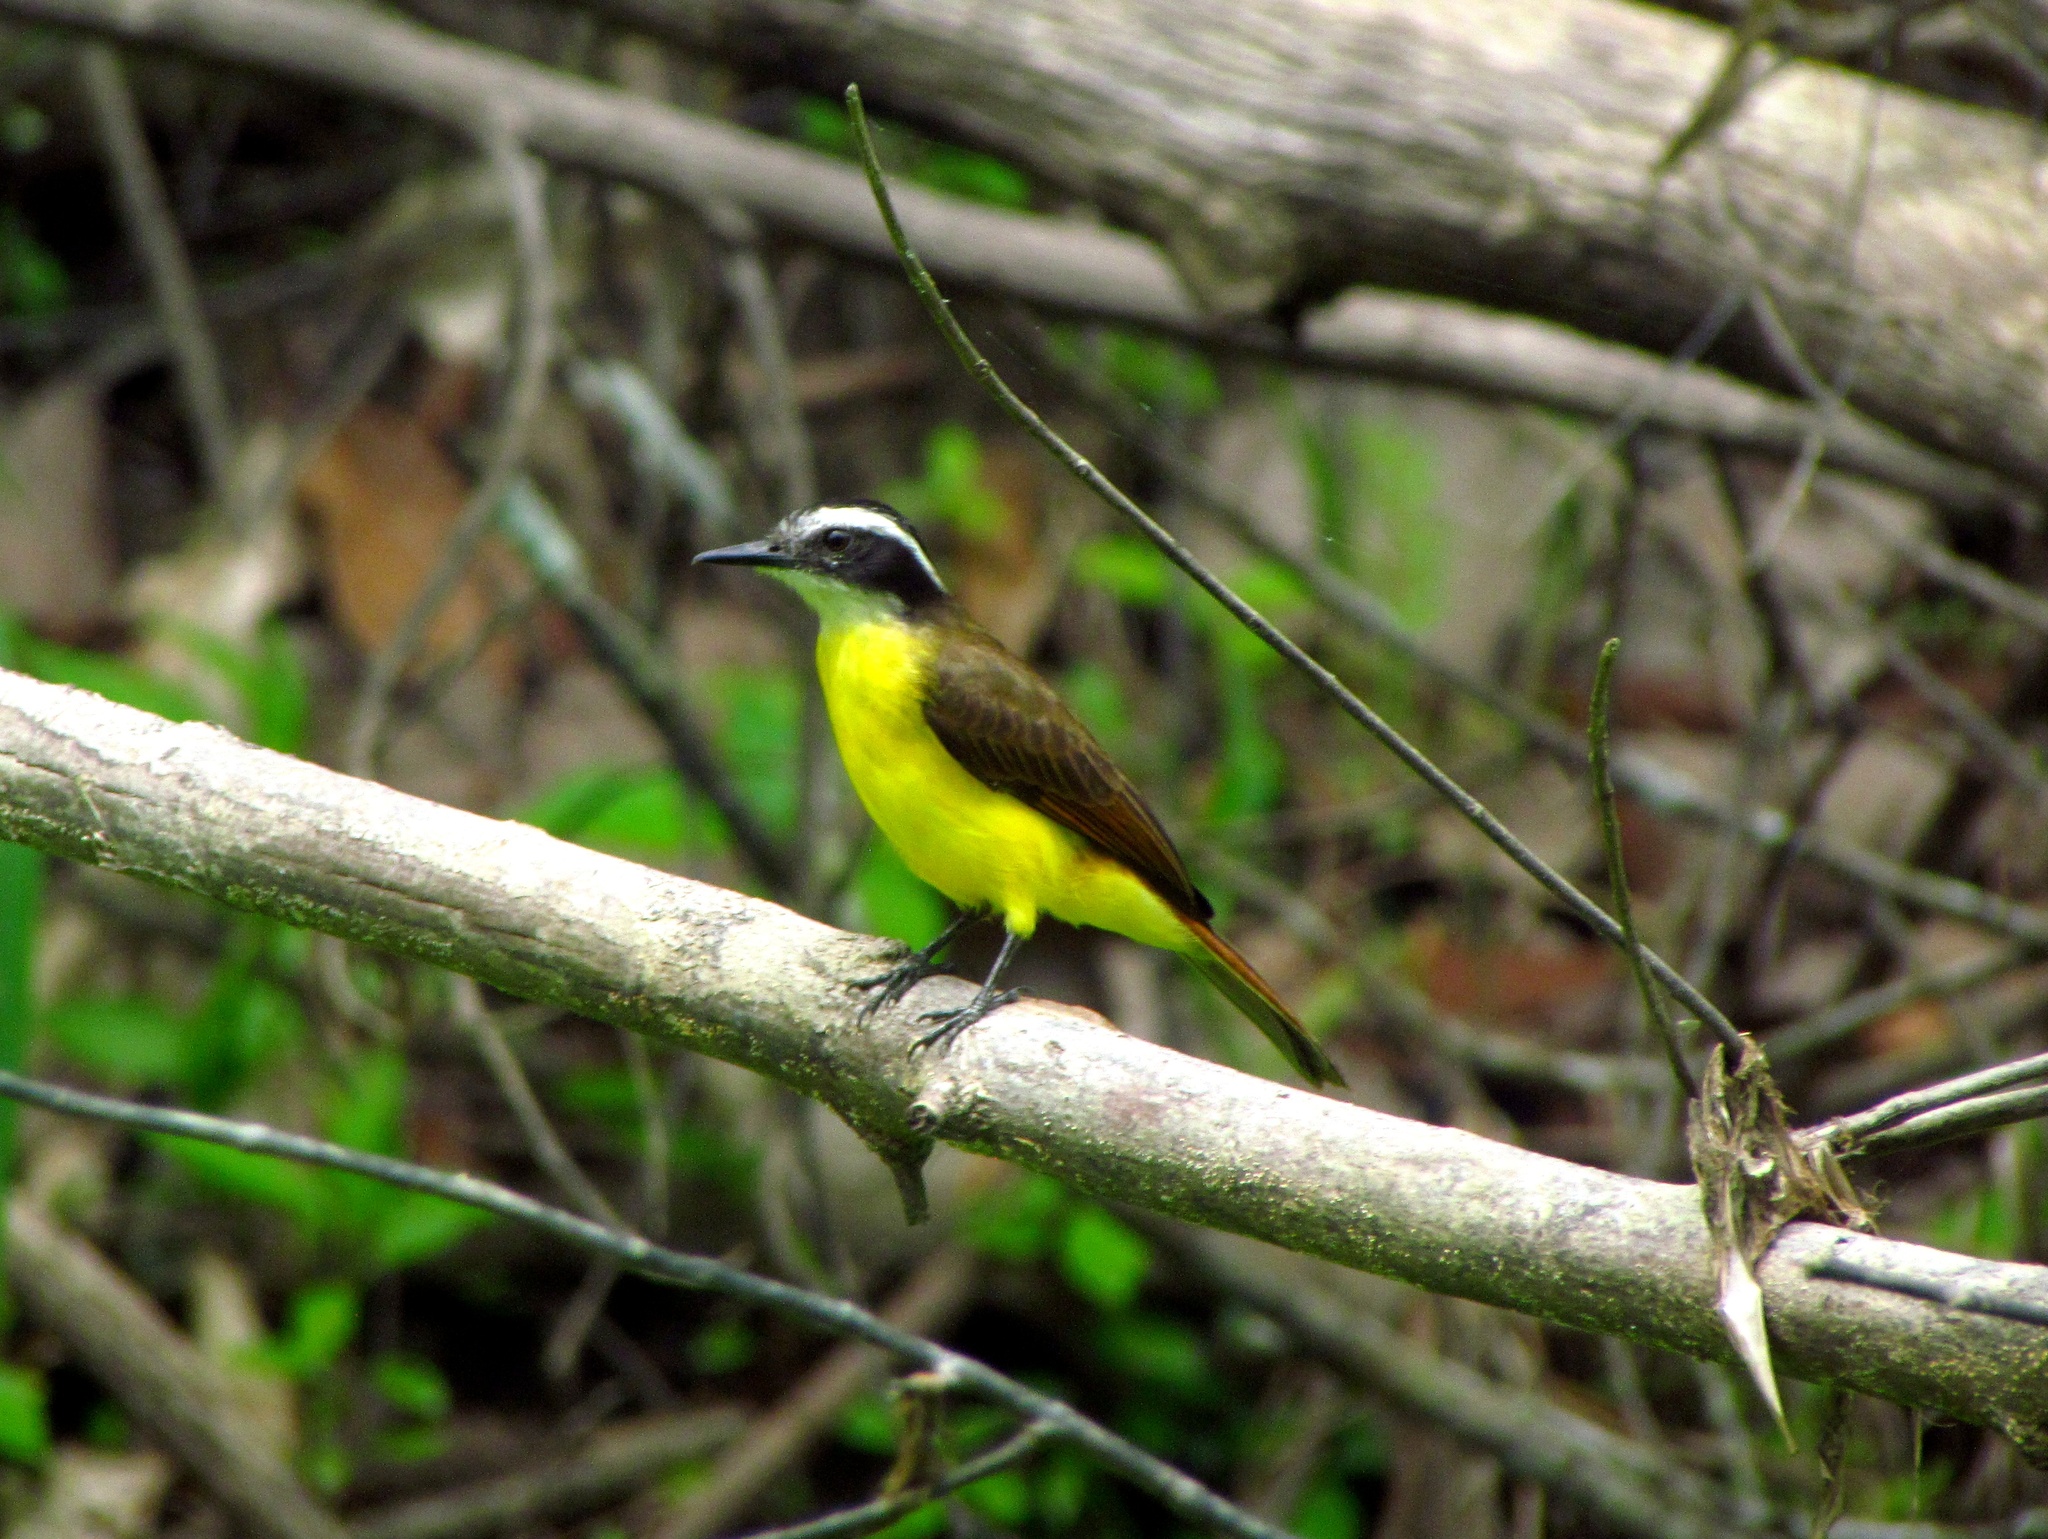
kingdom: Animalia
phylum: Chordata
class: Aves
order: Passeriformes
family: Tyrannidae
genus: Pitangus
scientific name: Pitangus lictor
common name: Lesser kiskadee
